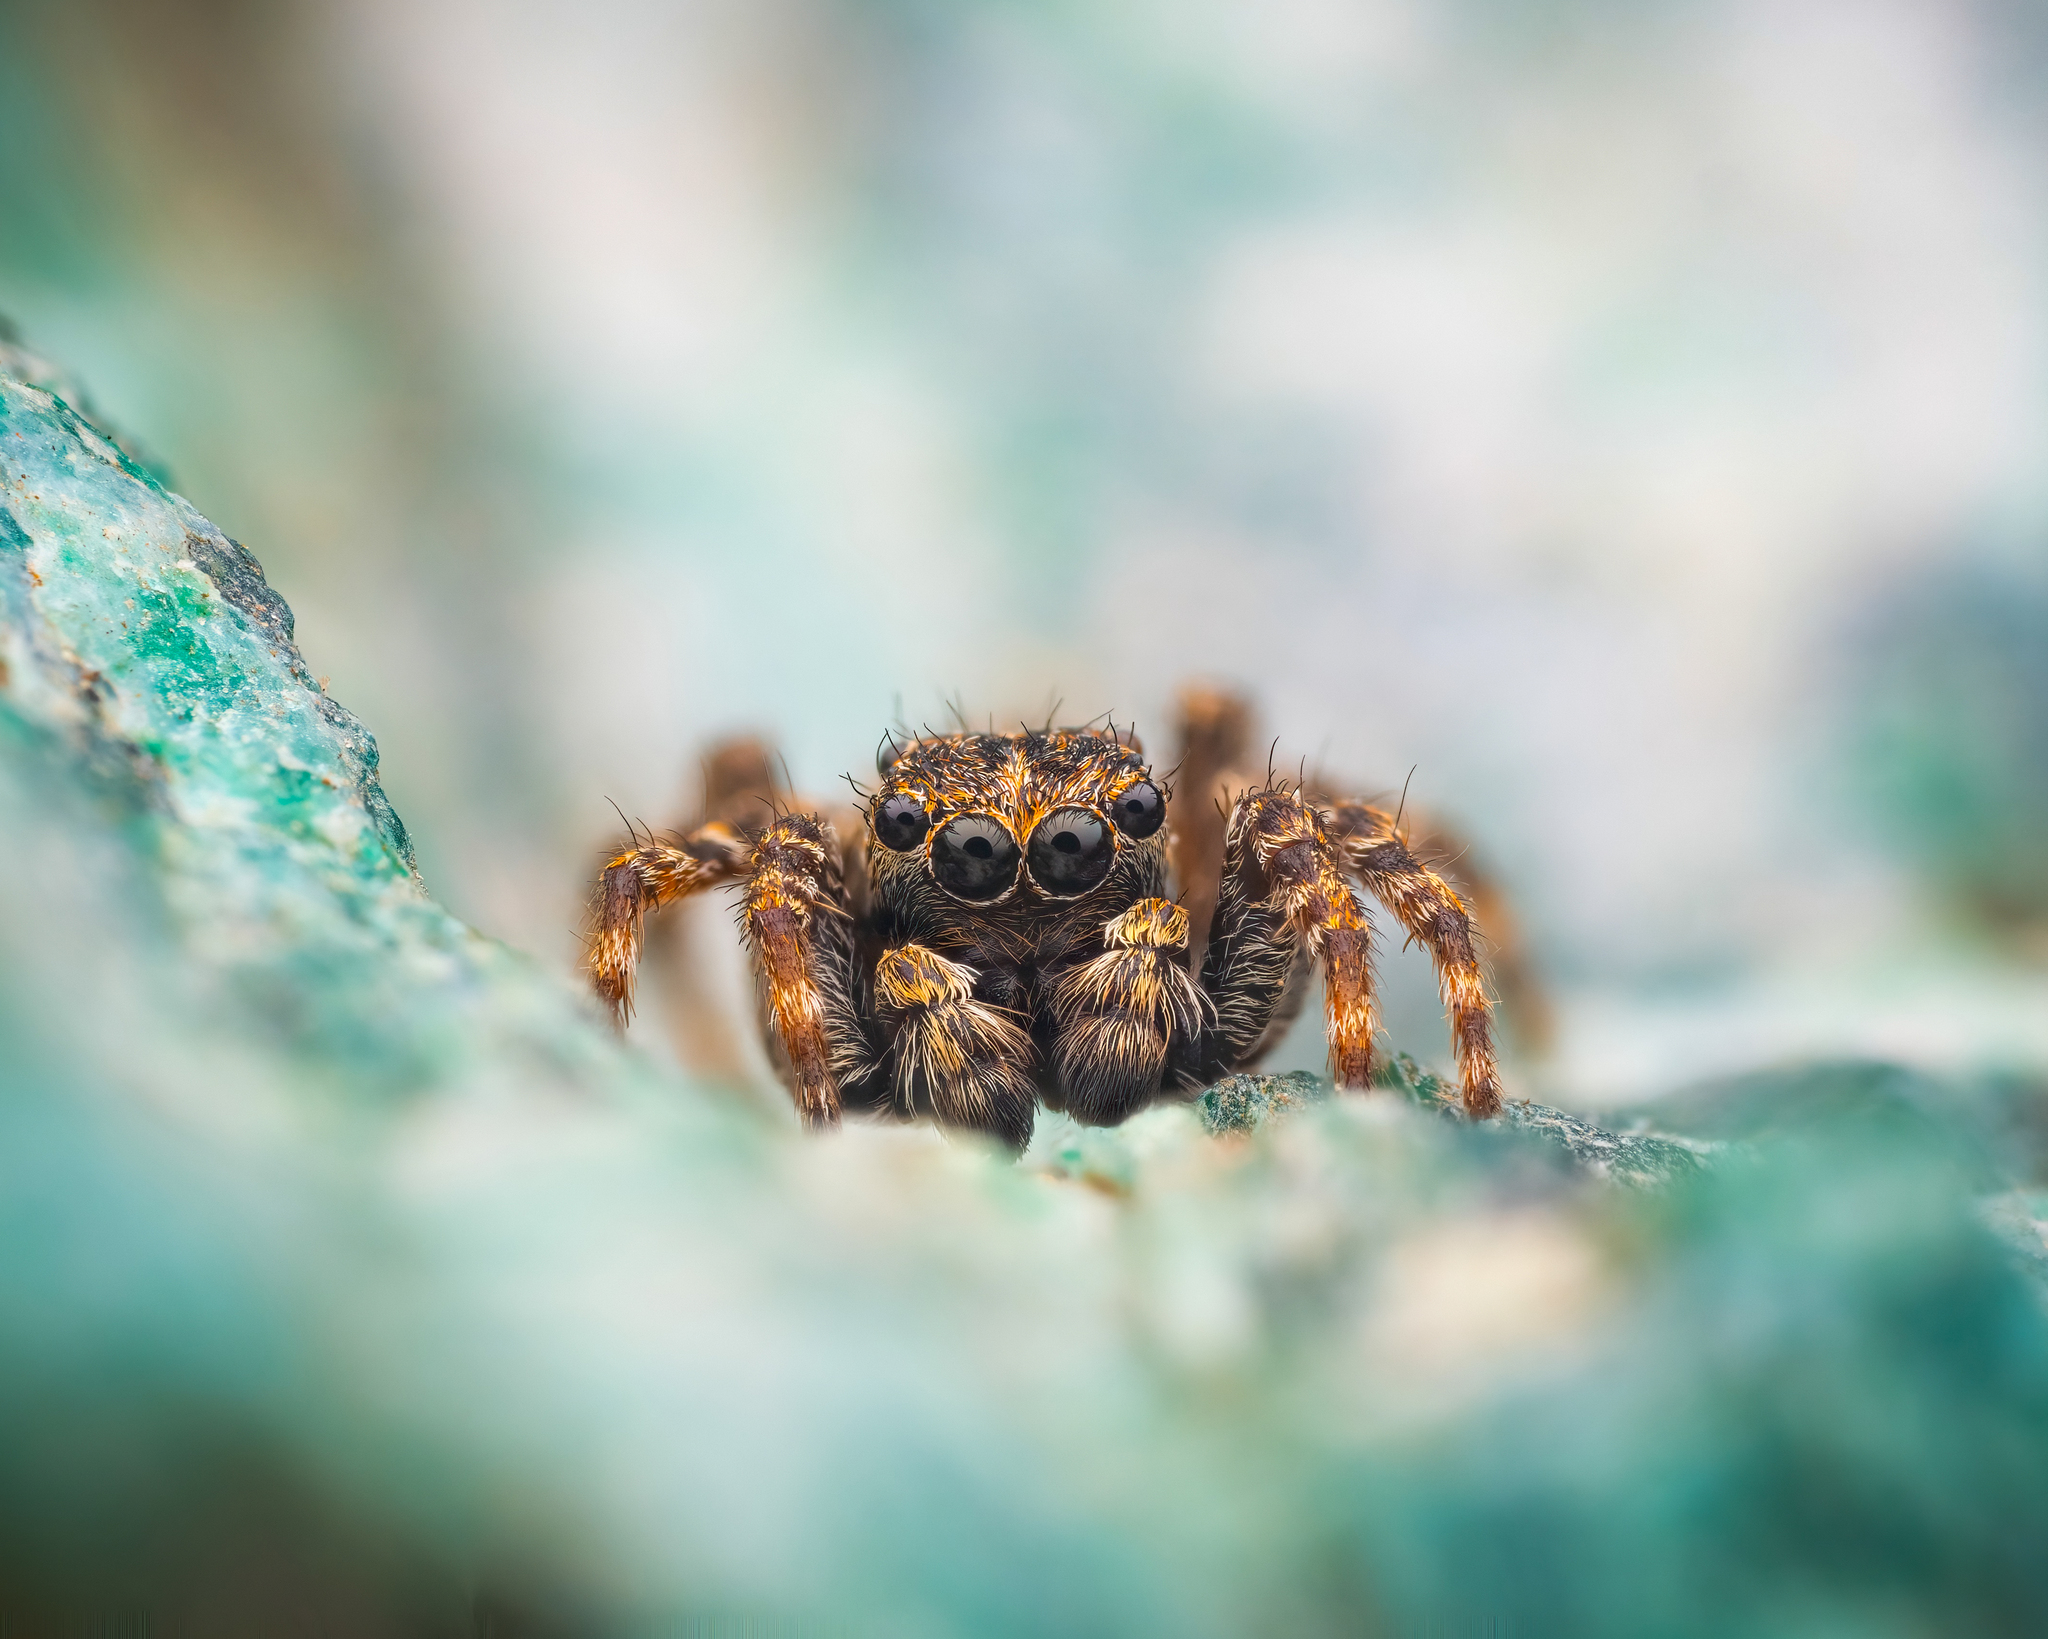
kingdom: Animalia
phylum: Arthropoda
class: Arachnida
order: Araneae
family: Salticidae
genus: Attulus
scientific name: Attulus pubescens
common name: Jumping spider
